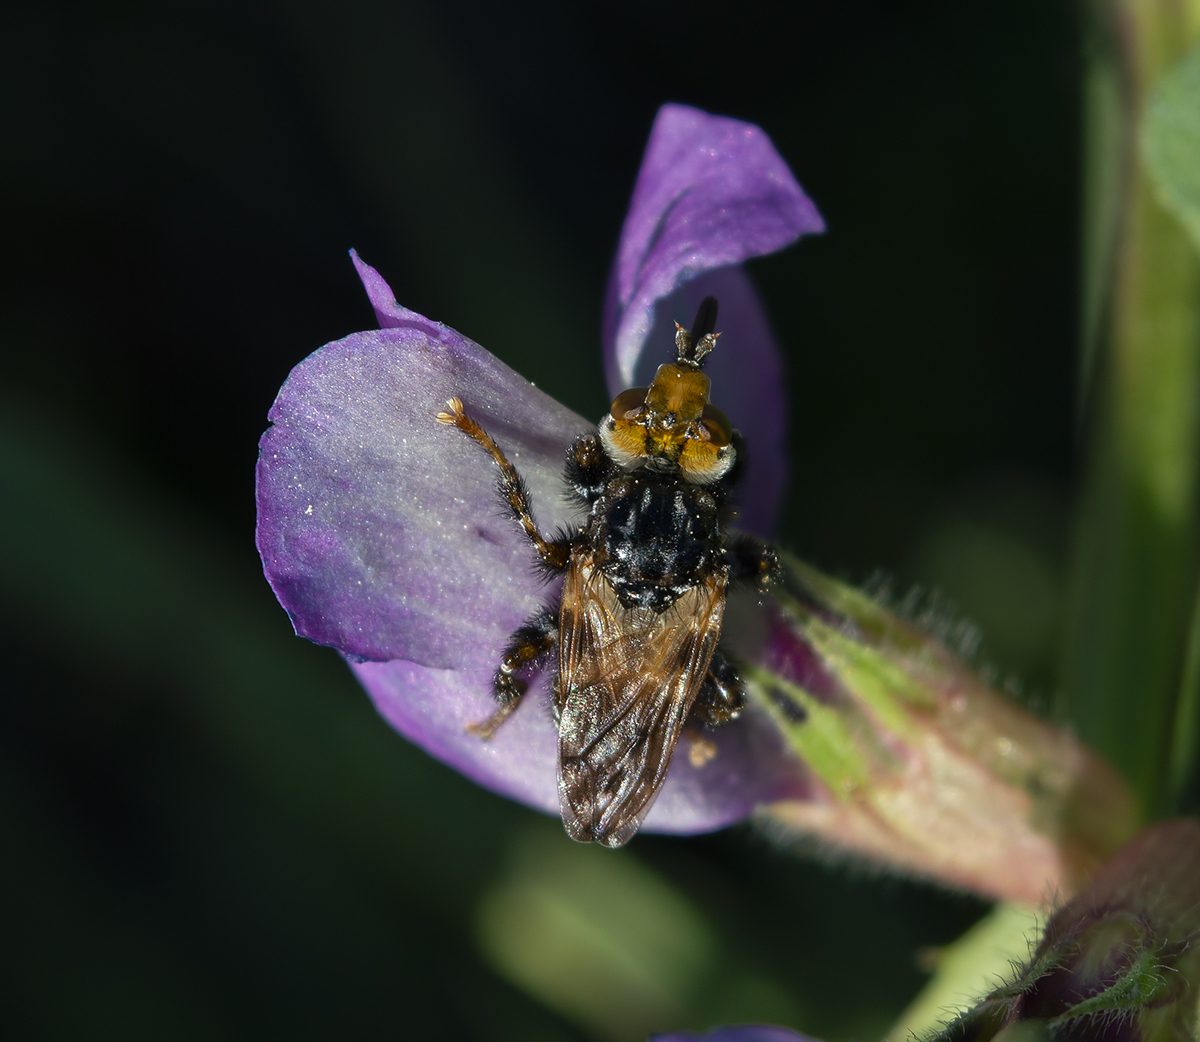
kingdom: Animalia
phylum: Arthropoda
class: Insecta
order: Diptera
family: Conopidae
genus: Myopa
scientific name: Myopa picta
